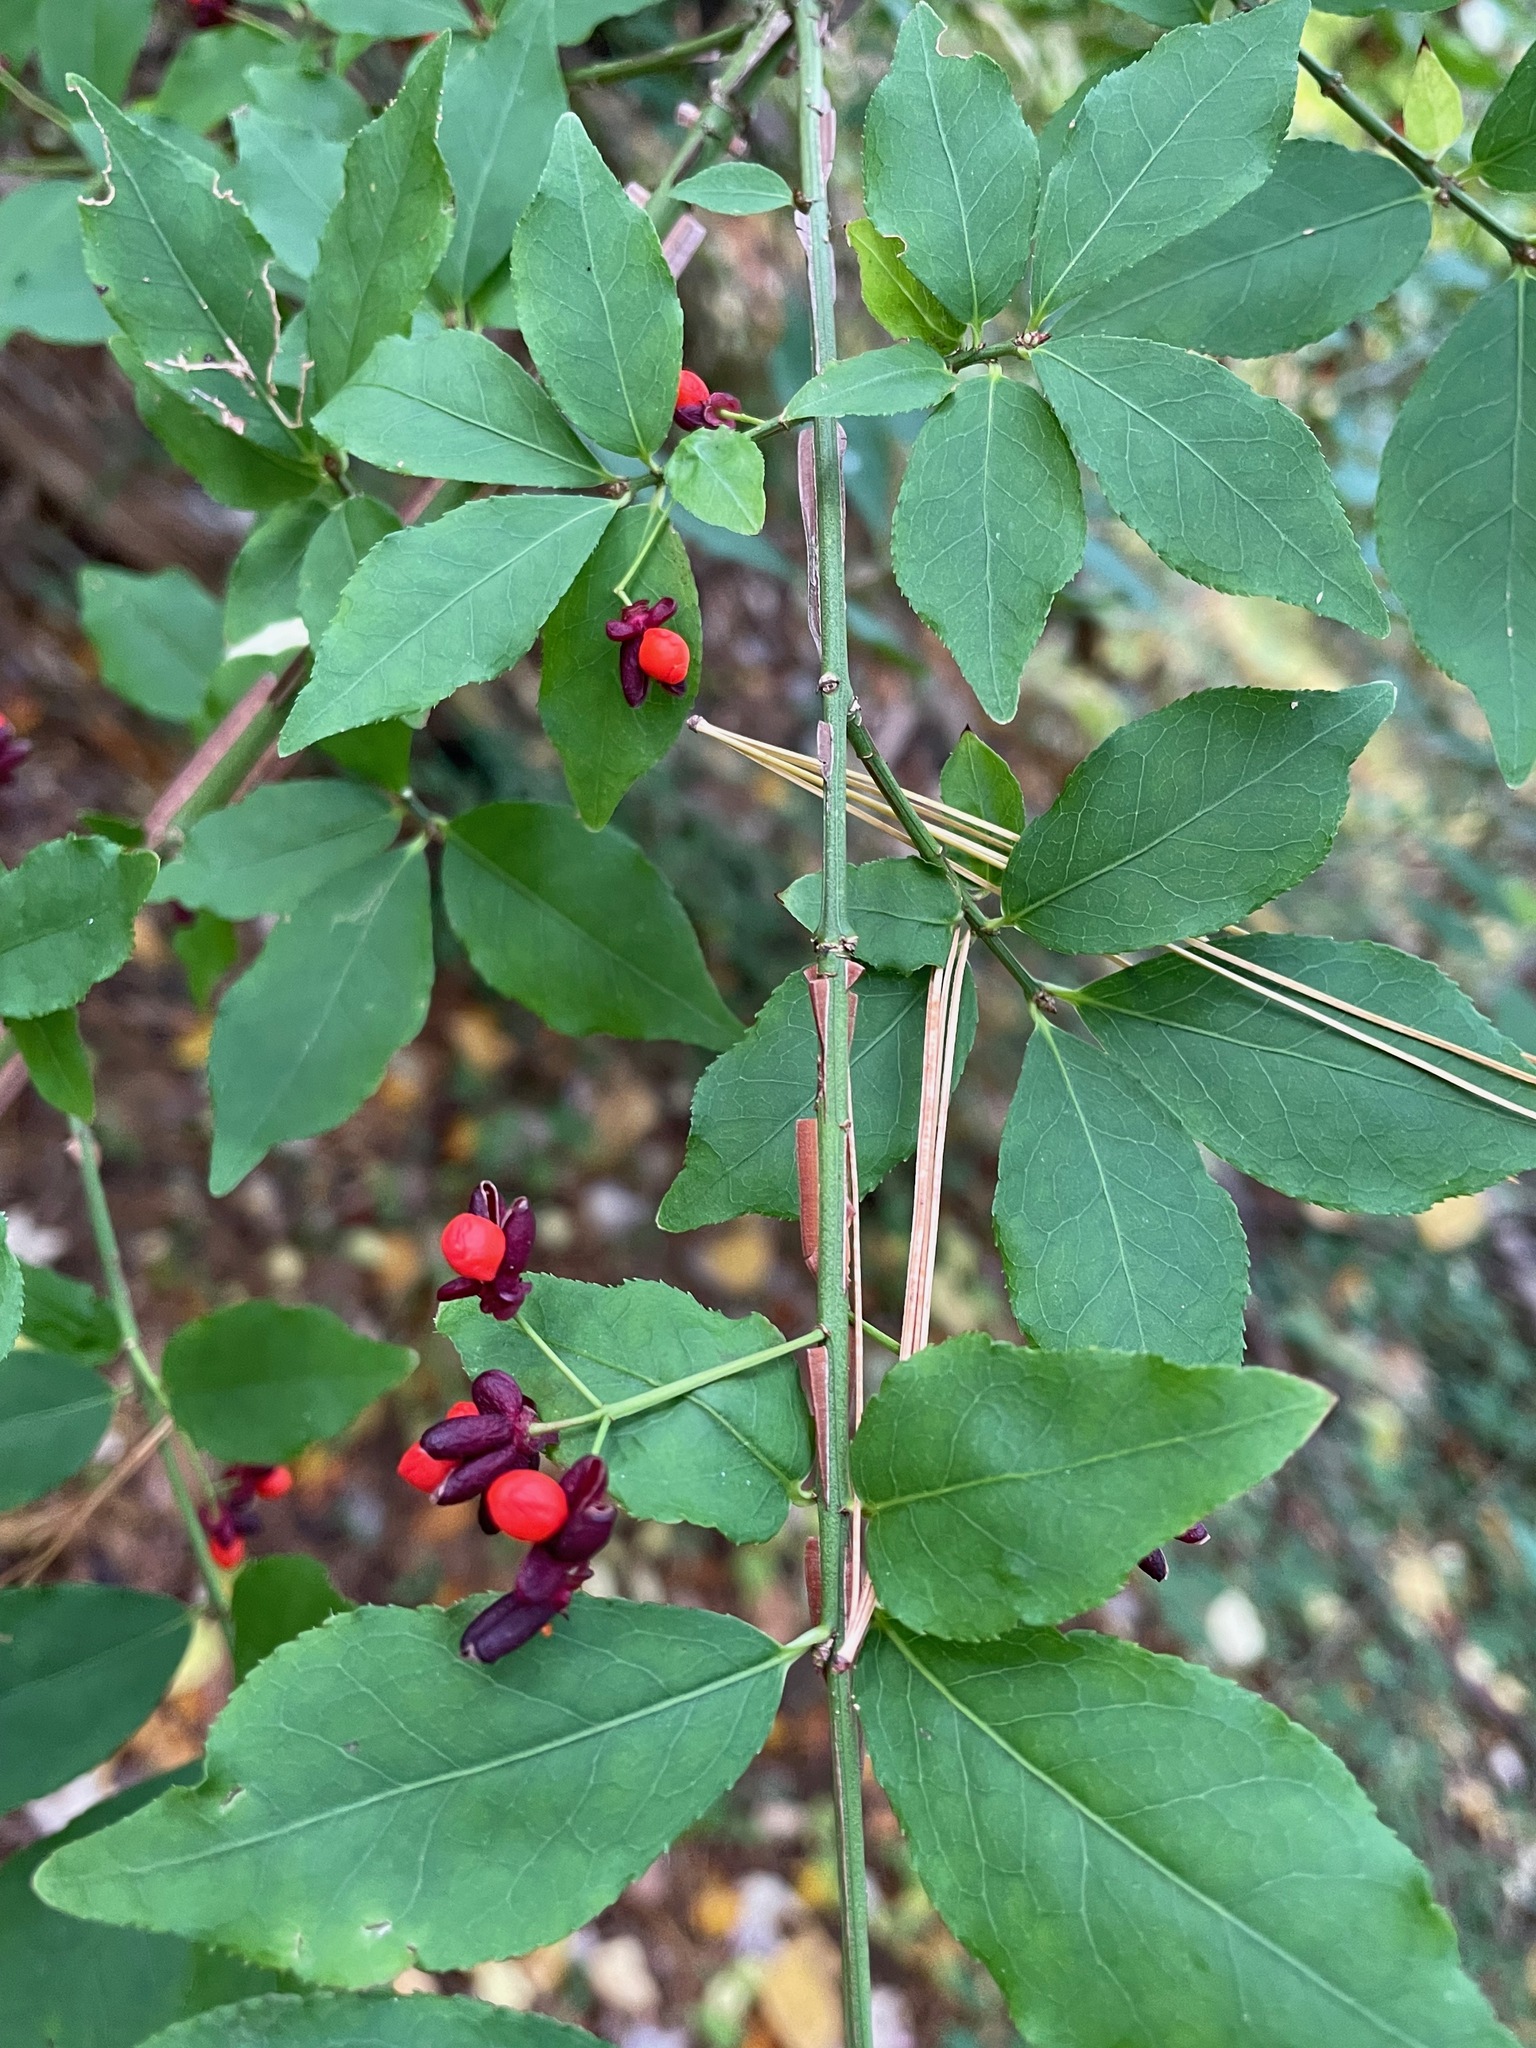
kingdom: Plantae
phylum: Tracheophyta
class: Magnoliopsida
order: Celastrales
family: Celastraceae
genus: Euonymus
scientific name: Euonymus alatus
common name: Winged euonymus
